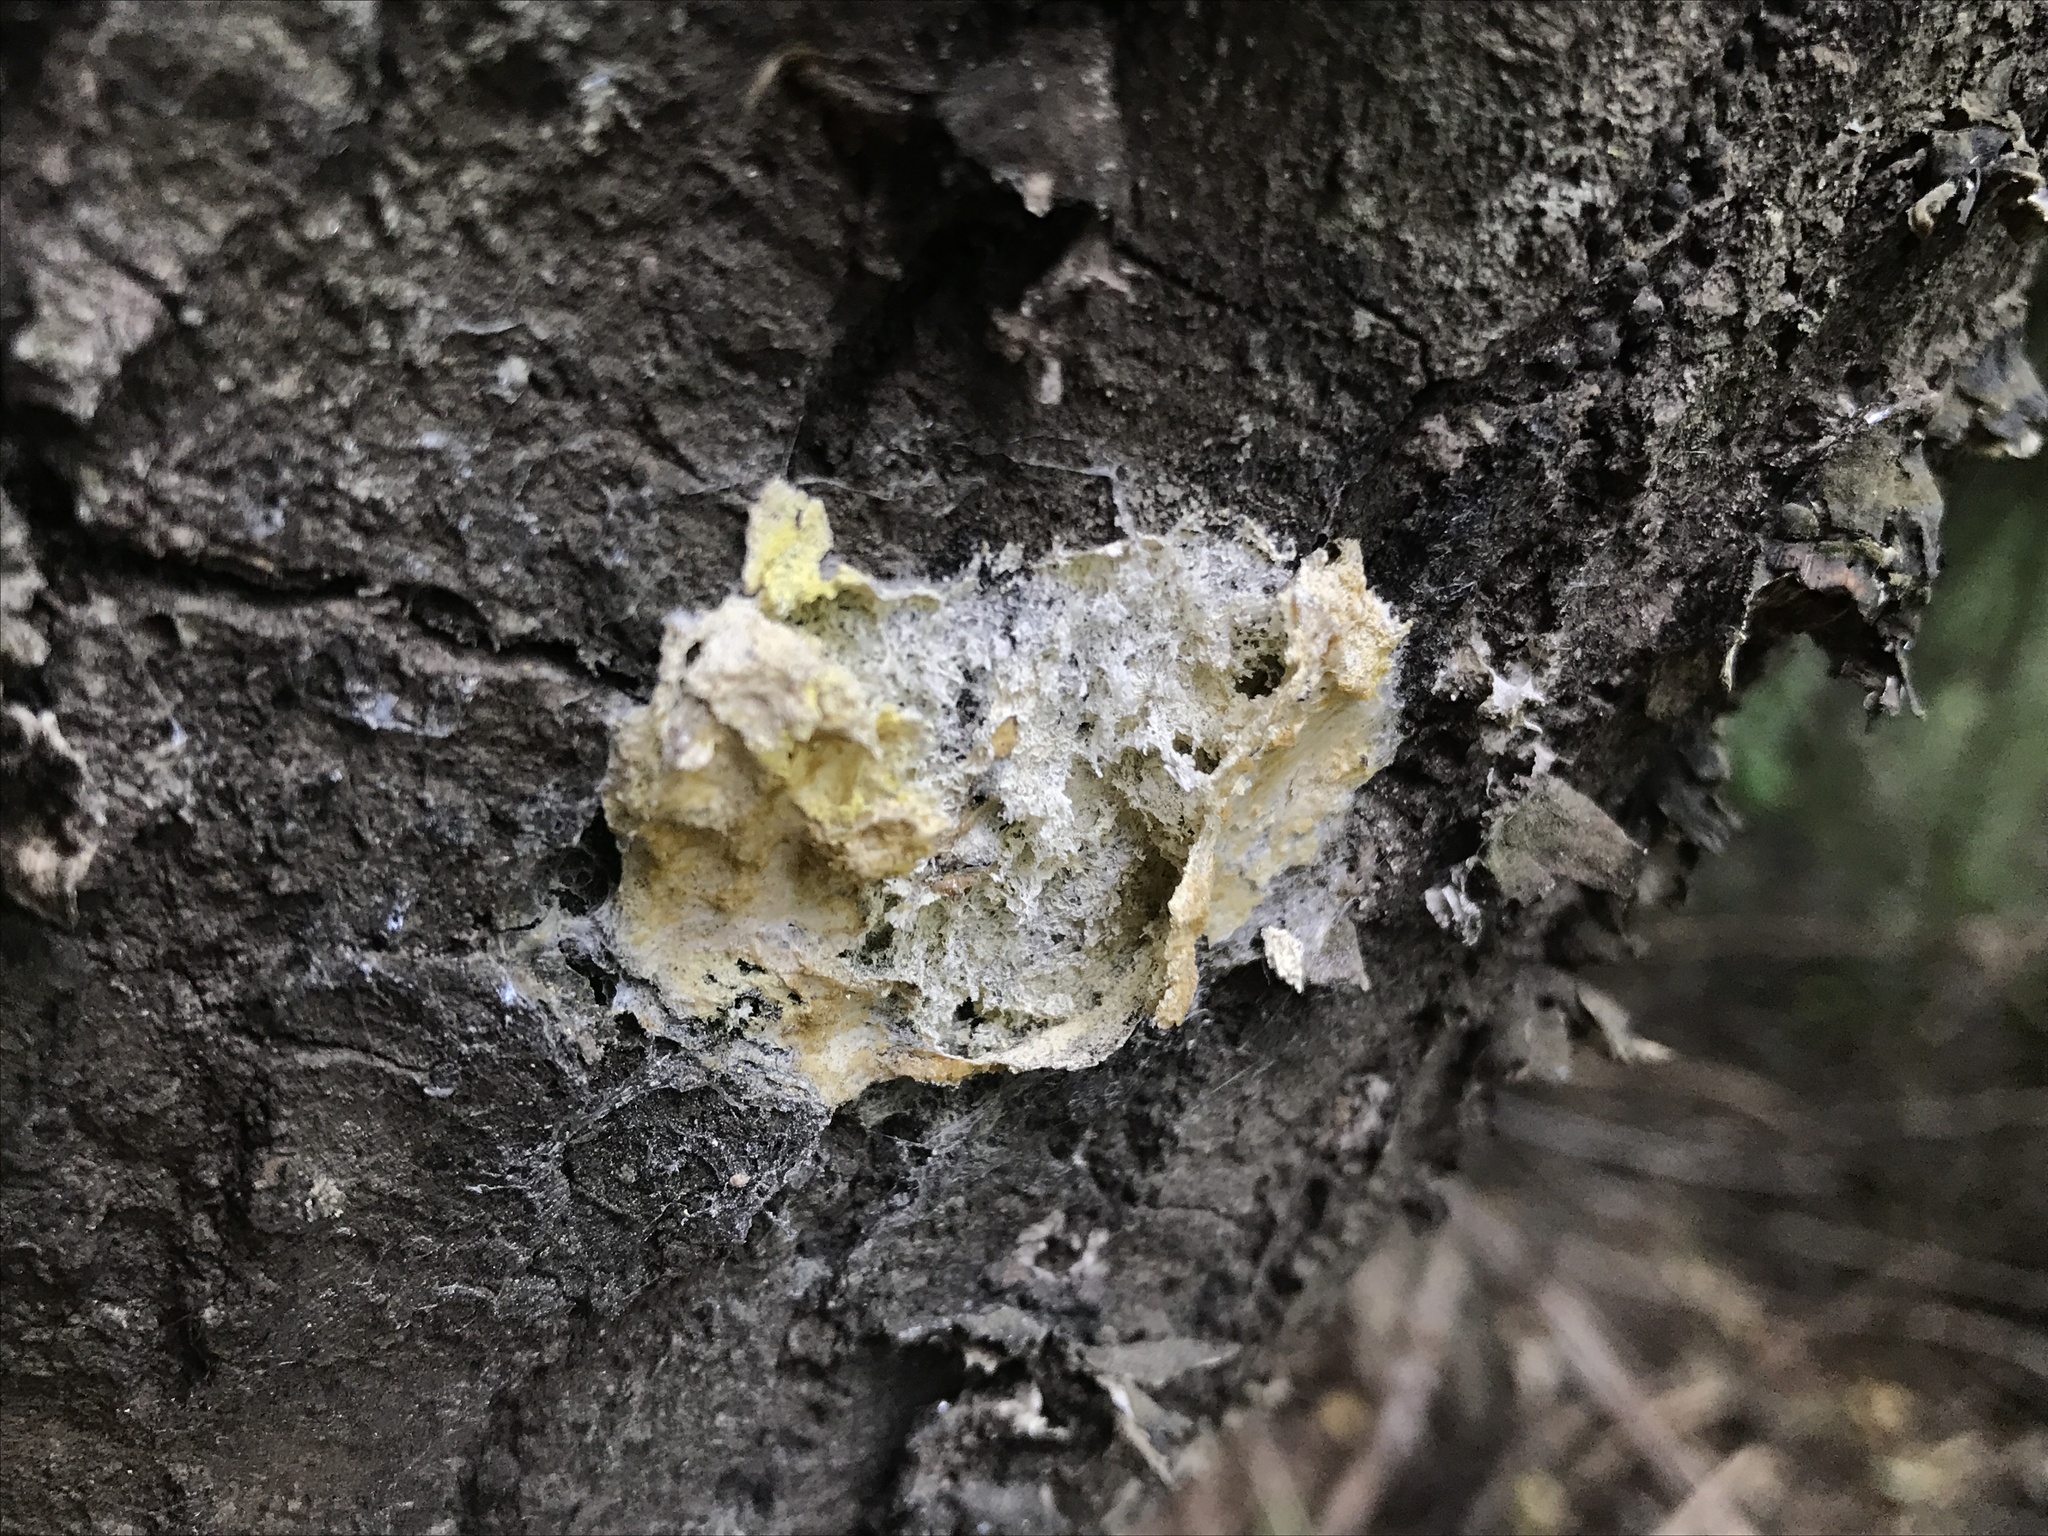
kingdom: Protozoa
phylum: Mycetozoa
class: Myxomycetes
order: Physarales
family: Physaraceae
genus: Fuligo
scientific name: Fuligo septica
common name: Dog vomit slime mold
